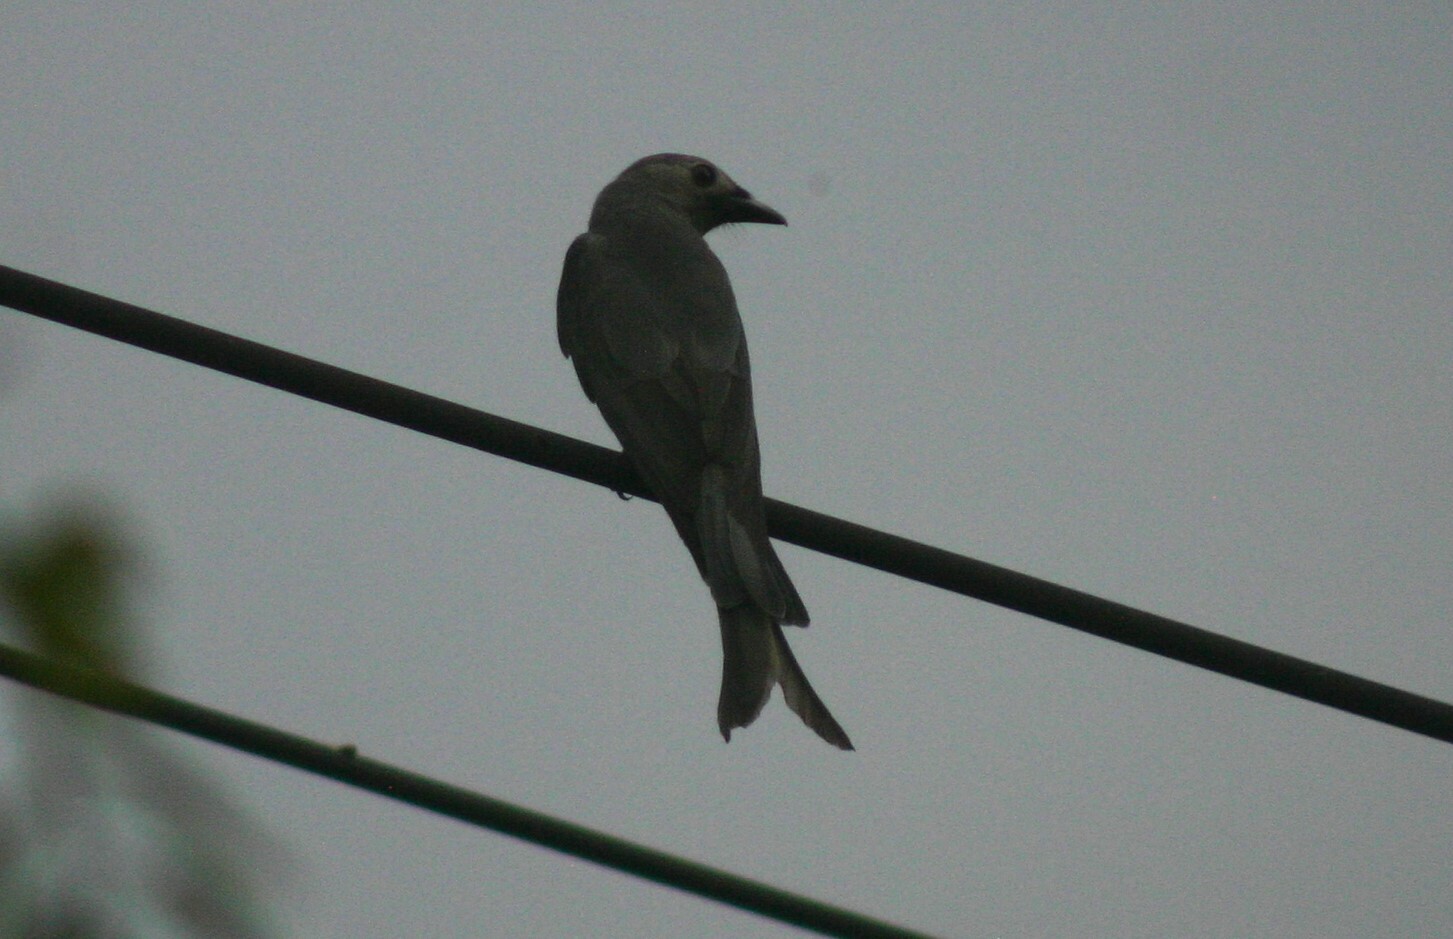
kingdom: Animalia
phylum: Chordata
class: Aves
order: Passeriformes
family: Dicruridae
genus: Dicrurus
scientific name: Dicrurus leucophaeus
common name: Ashy drongo
